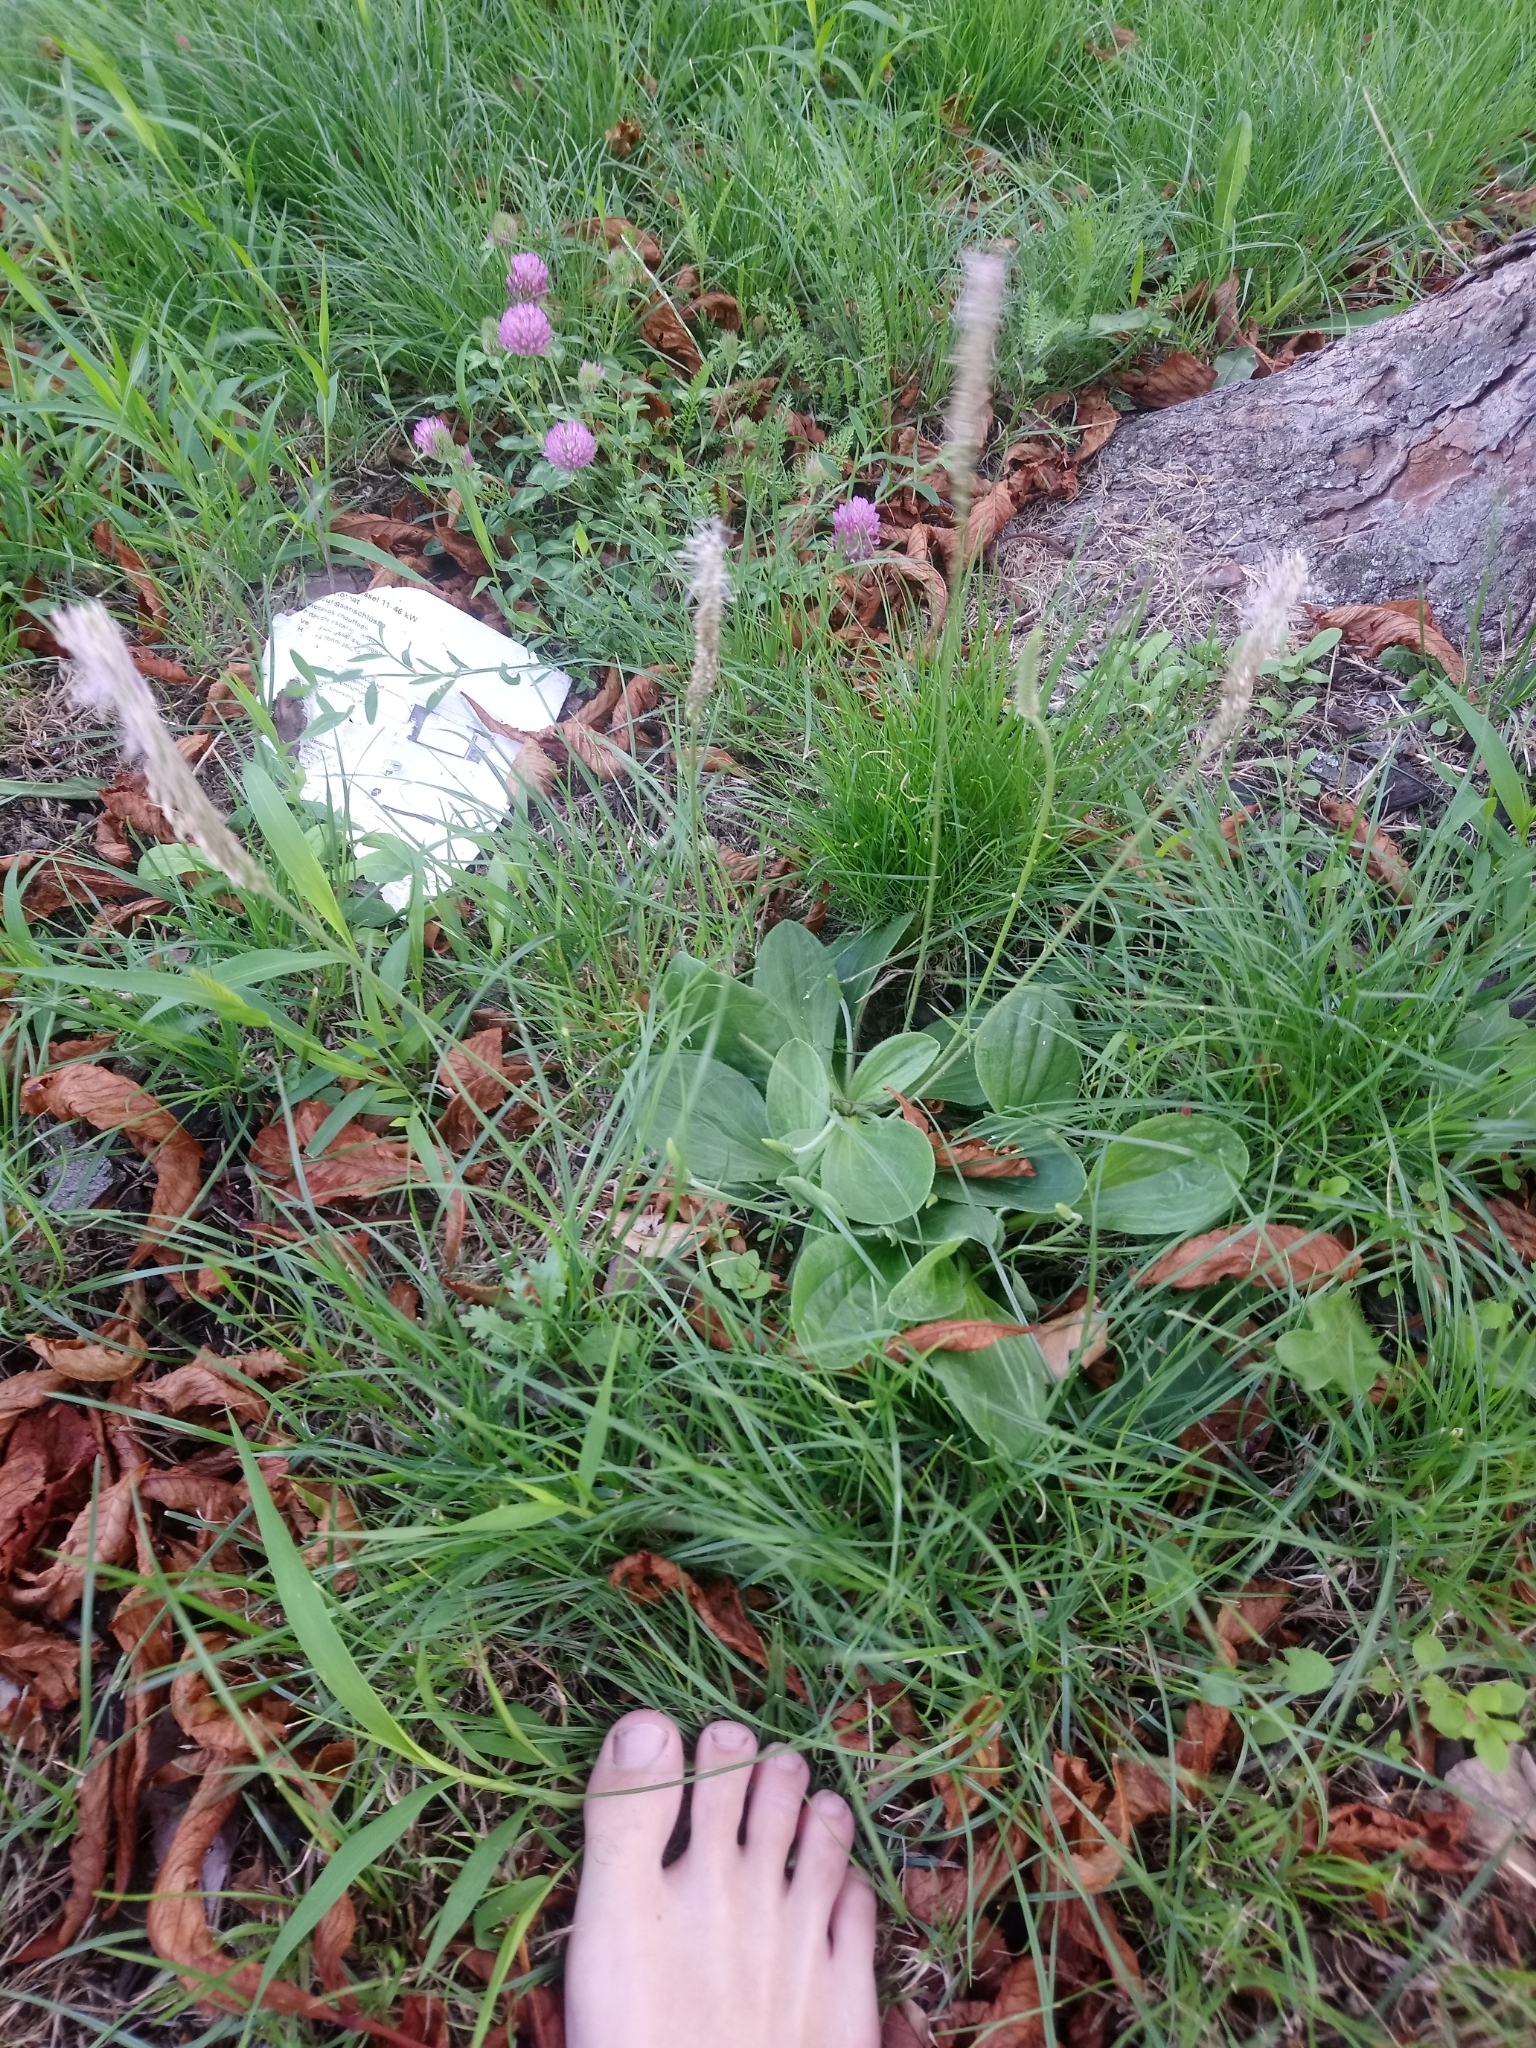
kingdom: Plantae
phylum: Tracheophyta
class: Magnoliopsida
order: Lamiales
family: Plantaginaceae
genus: Plantago
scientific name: Plantago media
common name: Hoary plantain
